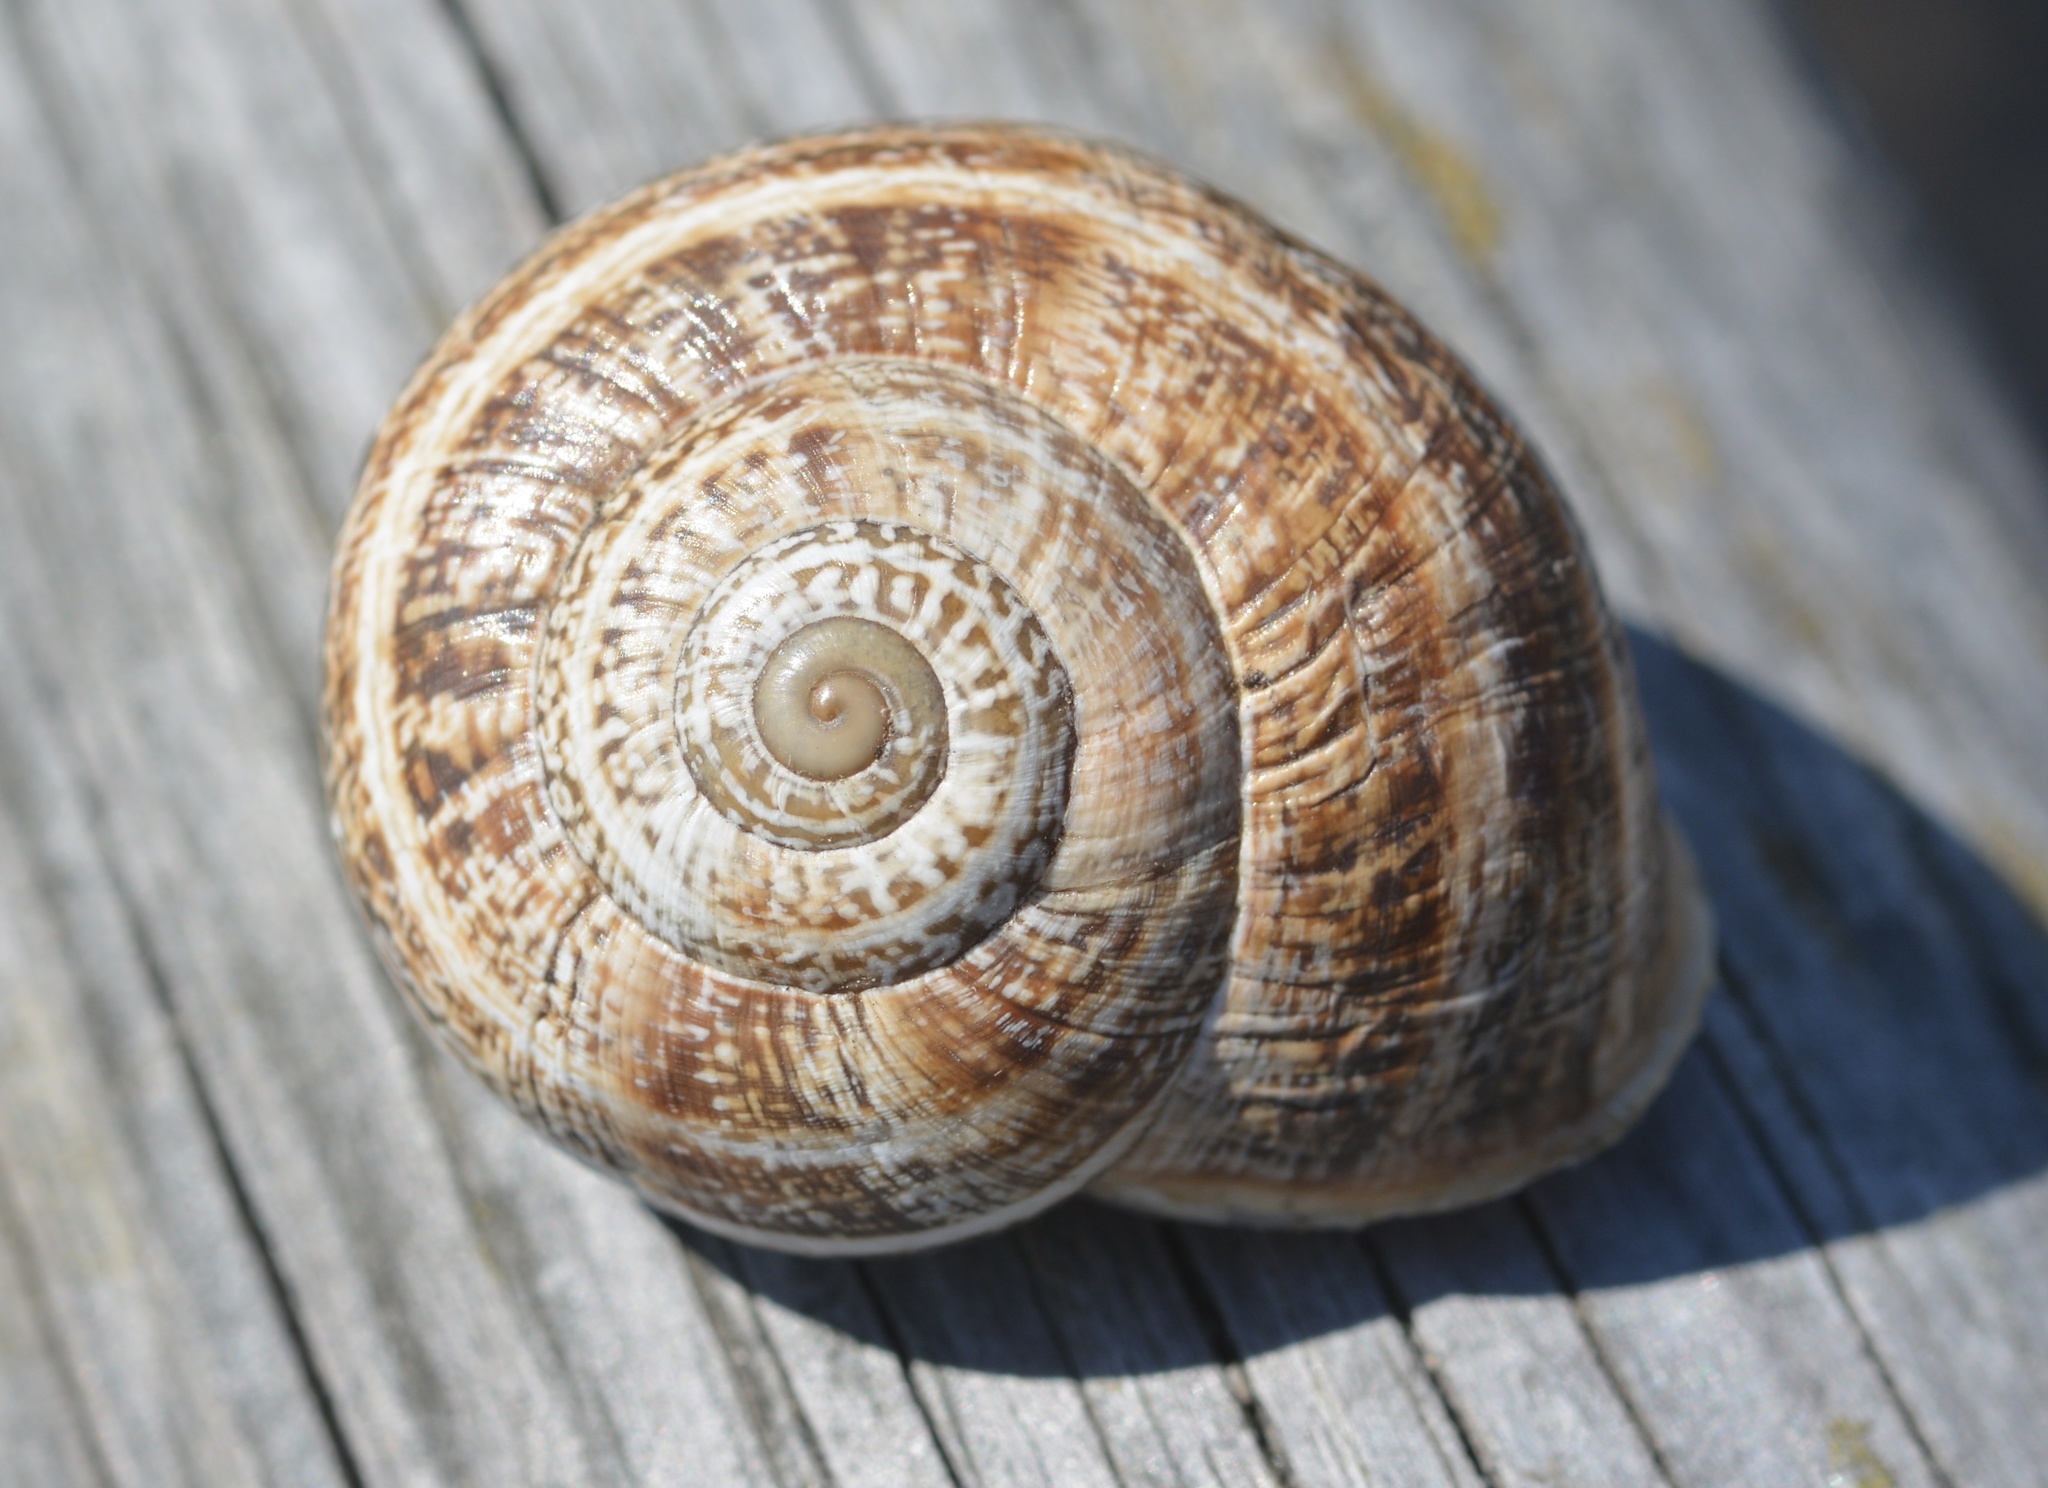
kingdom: Animalia
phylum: Mollusca
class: Gastropoda
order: Stylommatophora
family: Helicidae
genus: Otala
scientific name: Otala lactea
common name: Milk snail
